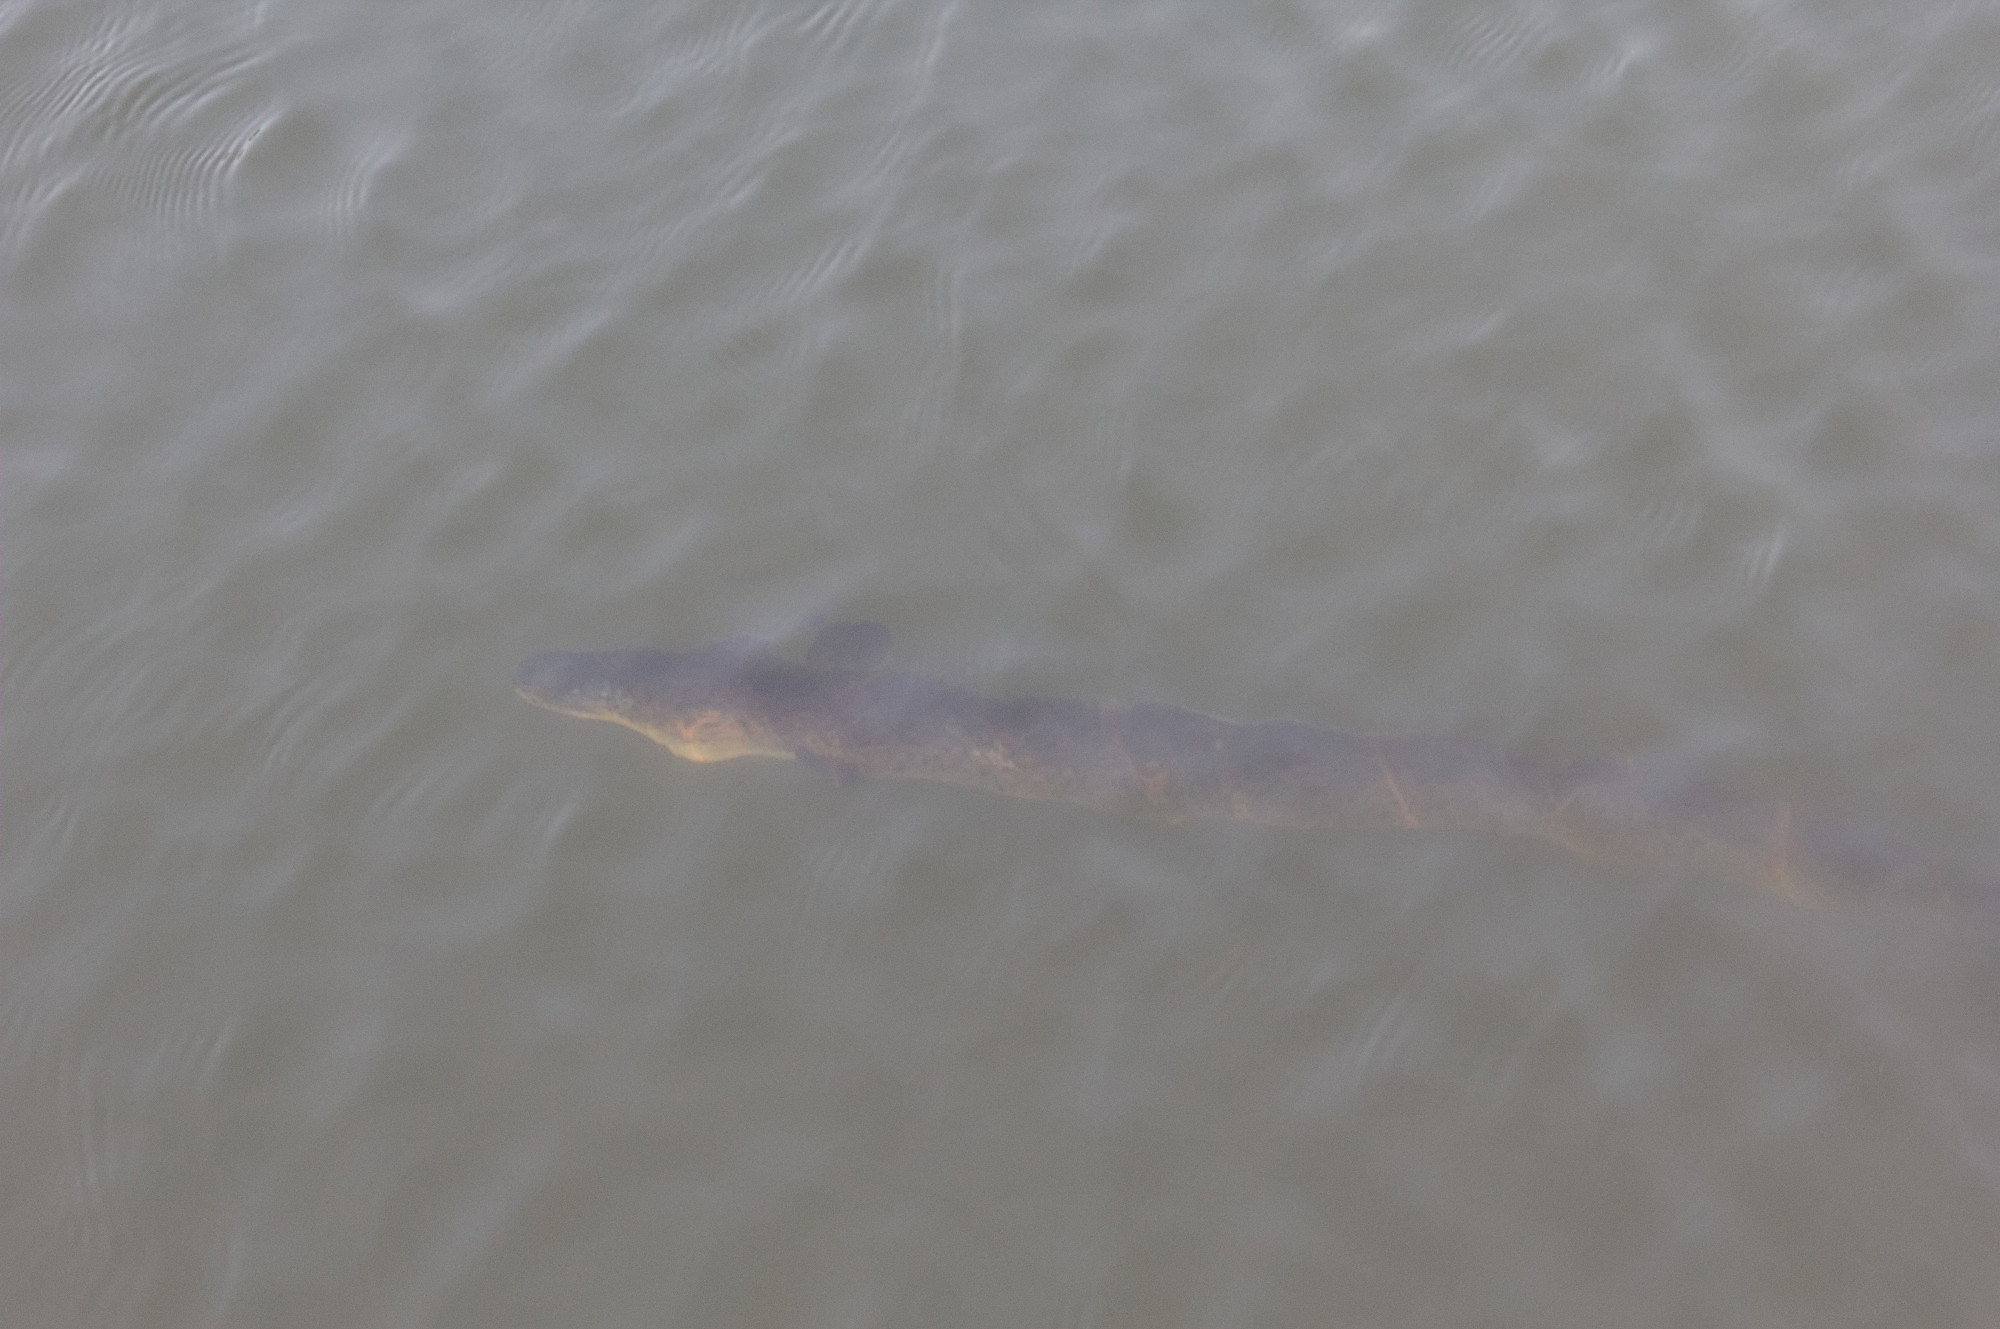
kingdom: Animalia
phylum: Chordata
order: Anguilliformes
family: Anguillidae
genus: Anguilla
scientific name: Anguilla reinhardtii
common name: Longfin eel
